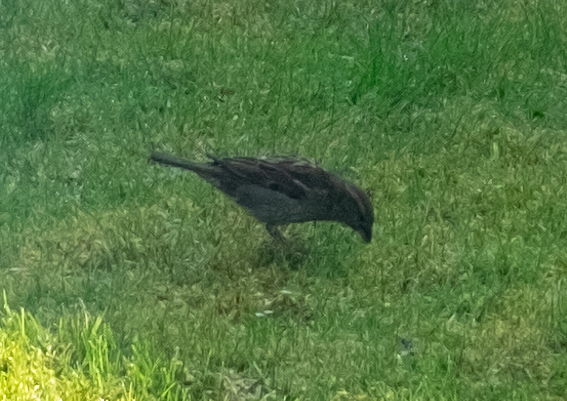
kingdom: Animalia
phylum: Chordata
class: Aves
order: Passeriformes
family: Passeridae
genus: Passer
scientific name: Passer domesticus
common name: House sparrow
